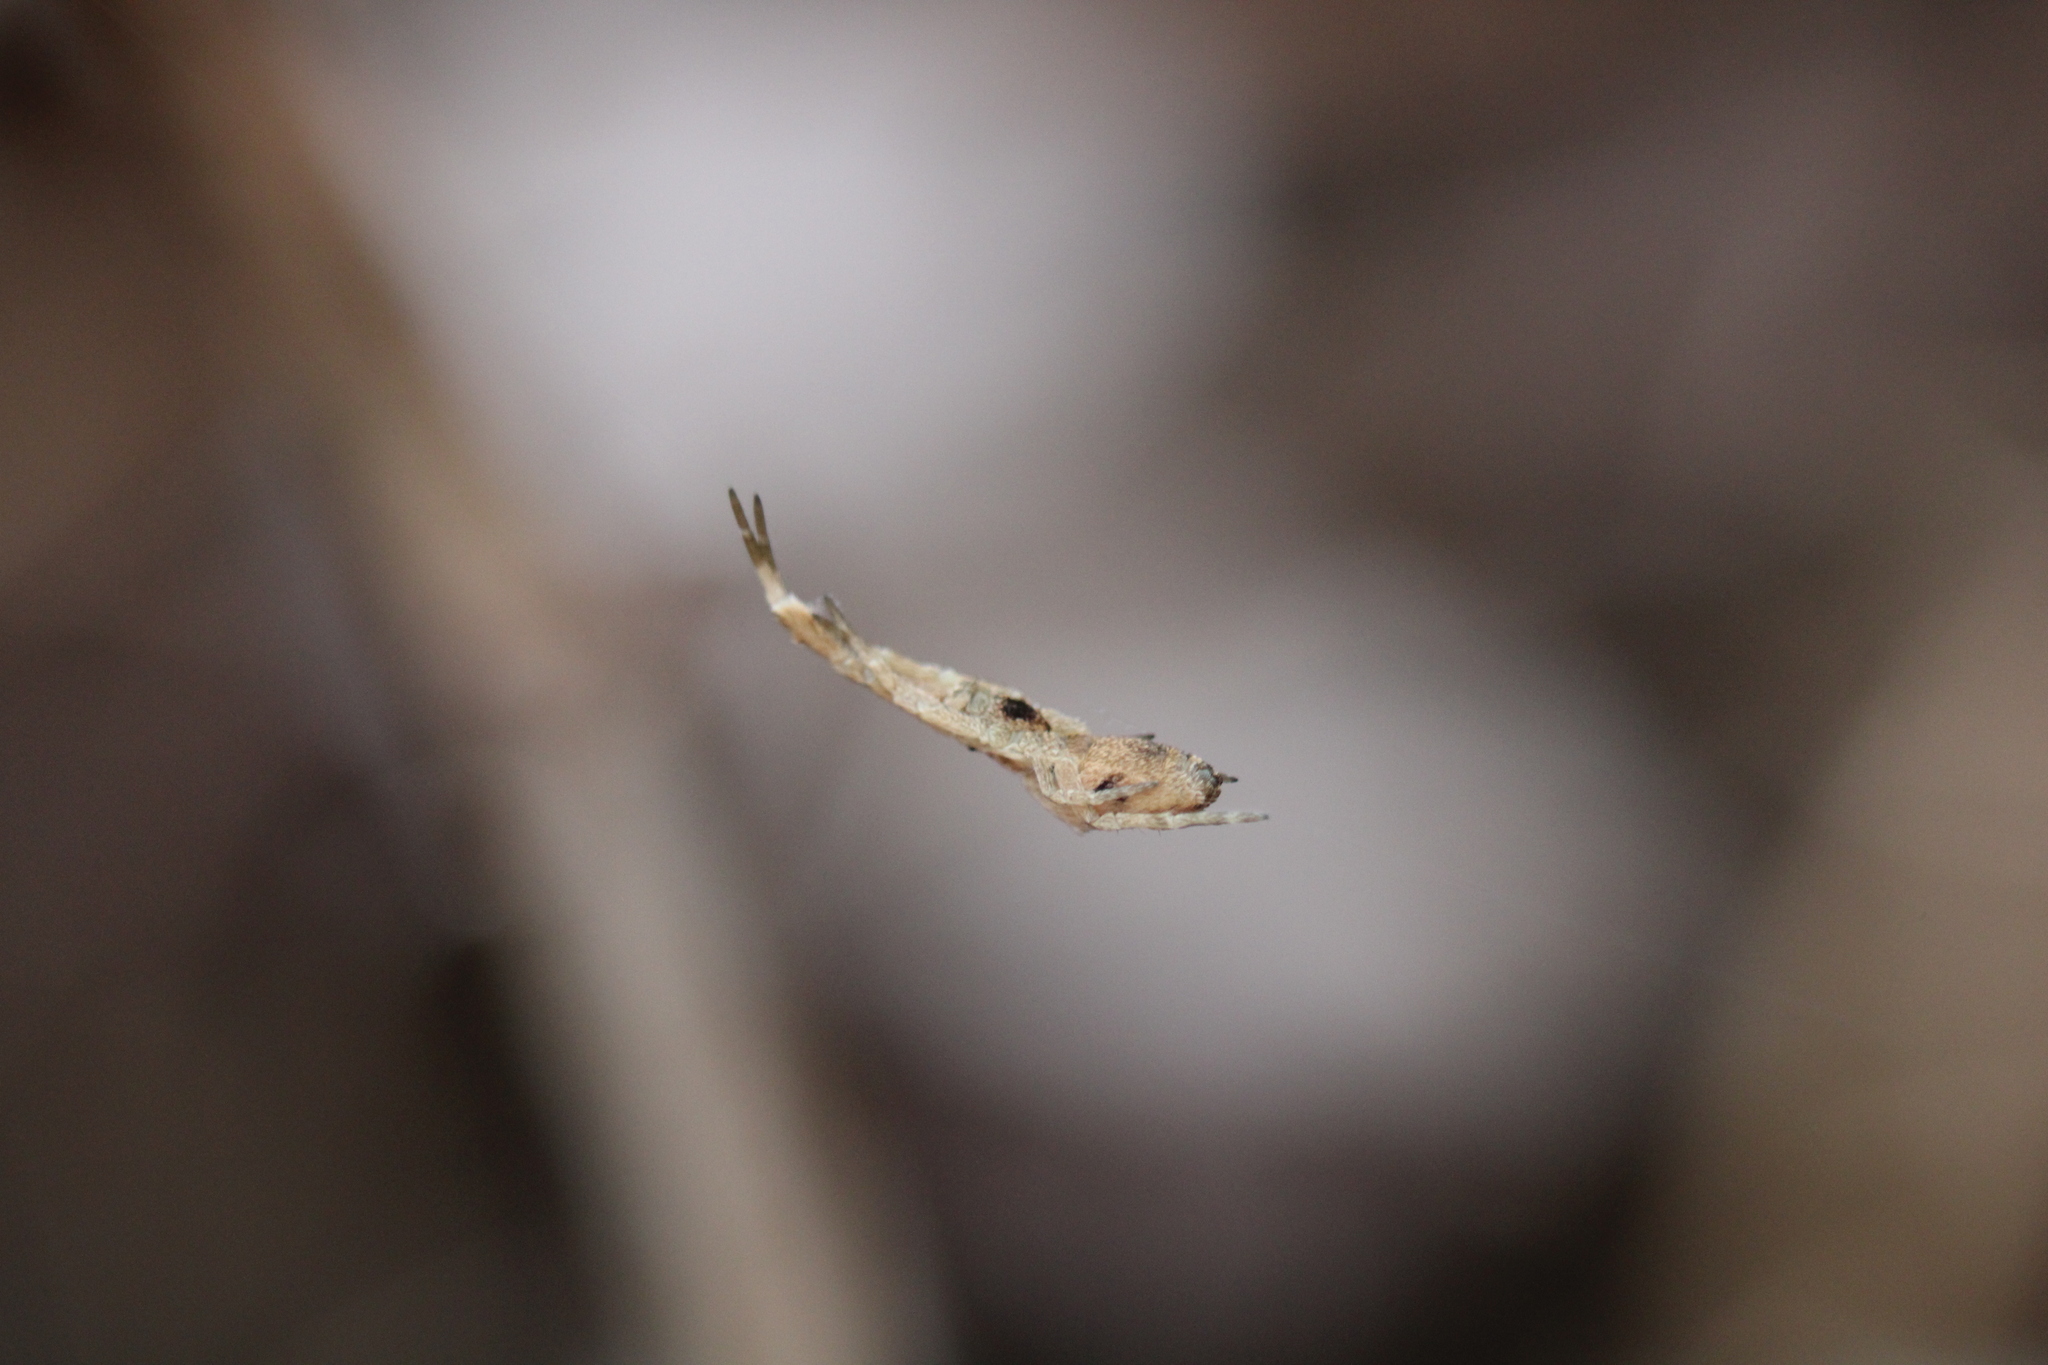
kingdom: Animalia
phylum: Arthropoda
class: Arachnida
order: Araneae
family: Uloboridae
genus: Uloborus
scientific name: Uloborus glomosus
